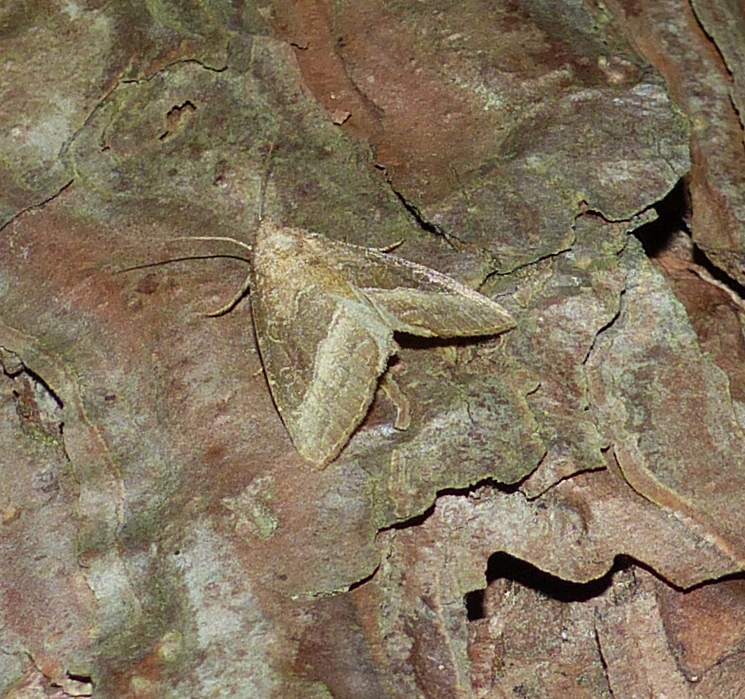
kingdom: Animalia
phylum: Arthropoda
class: Insecta
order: Lepidoptera
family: Noctuidae
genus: Ogdoconta
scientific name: Ogdoconta cinereola
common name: Common pinkband
